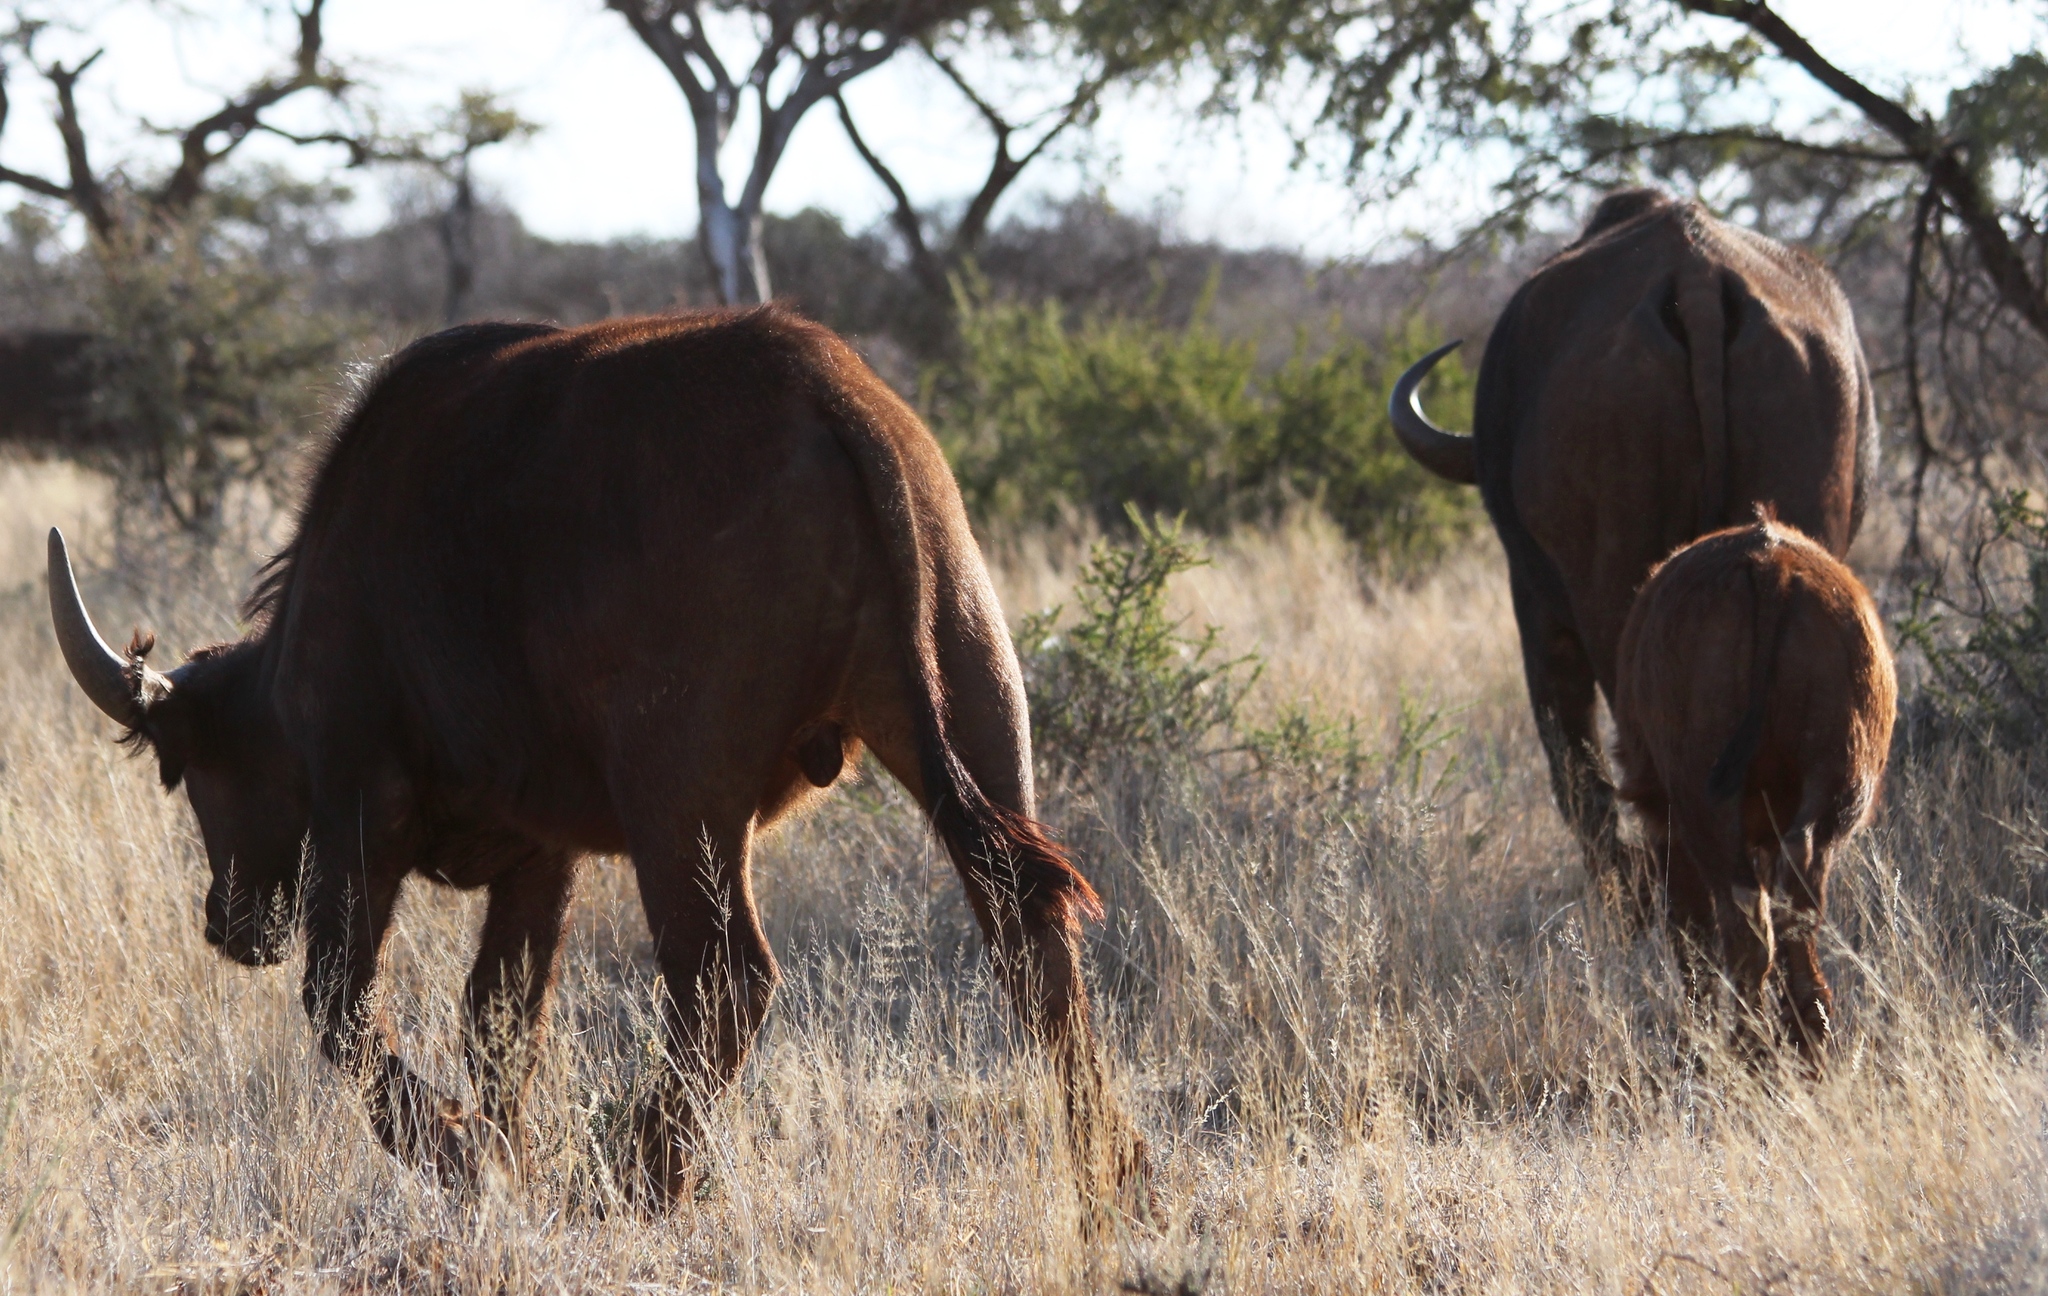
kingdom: Animalia
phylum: Chordata
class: Mammalia
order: Artiodactyla
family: Bovidae
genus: Syncerus
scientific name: Syncerus caffer
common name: African buffalo
